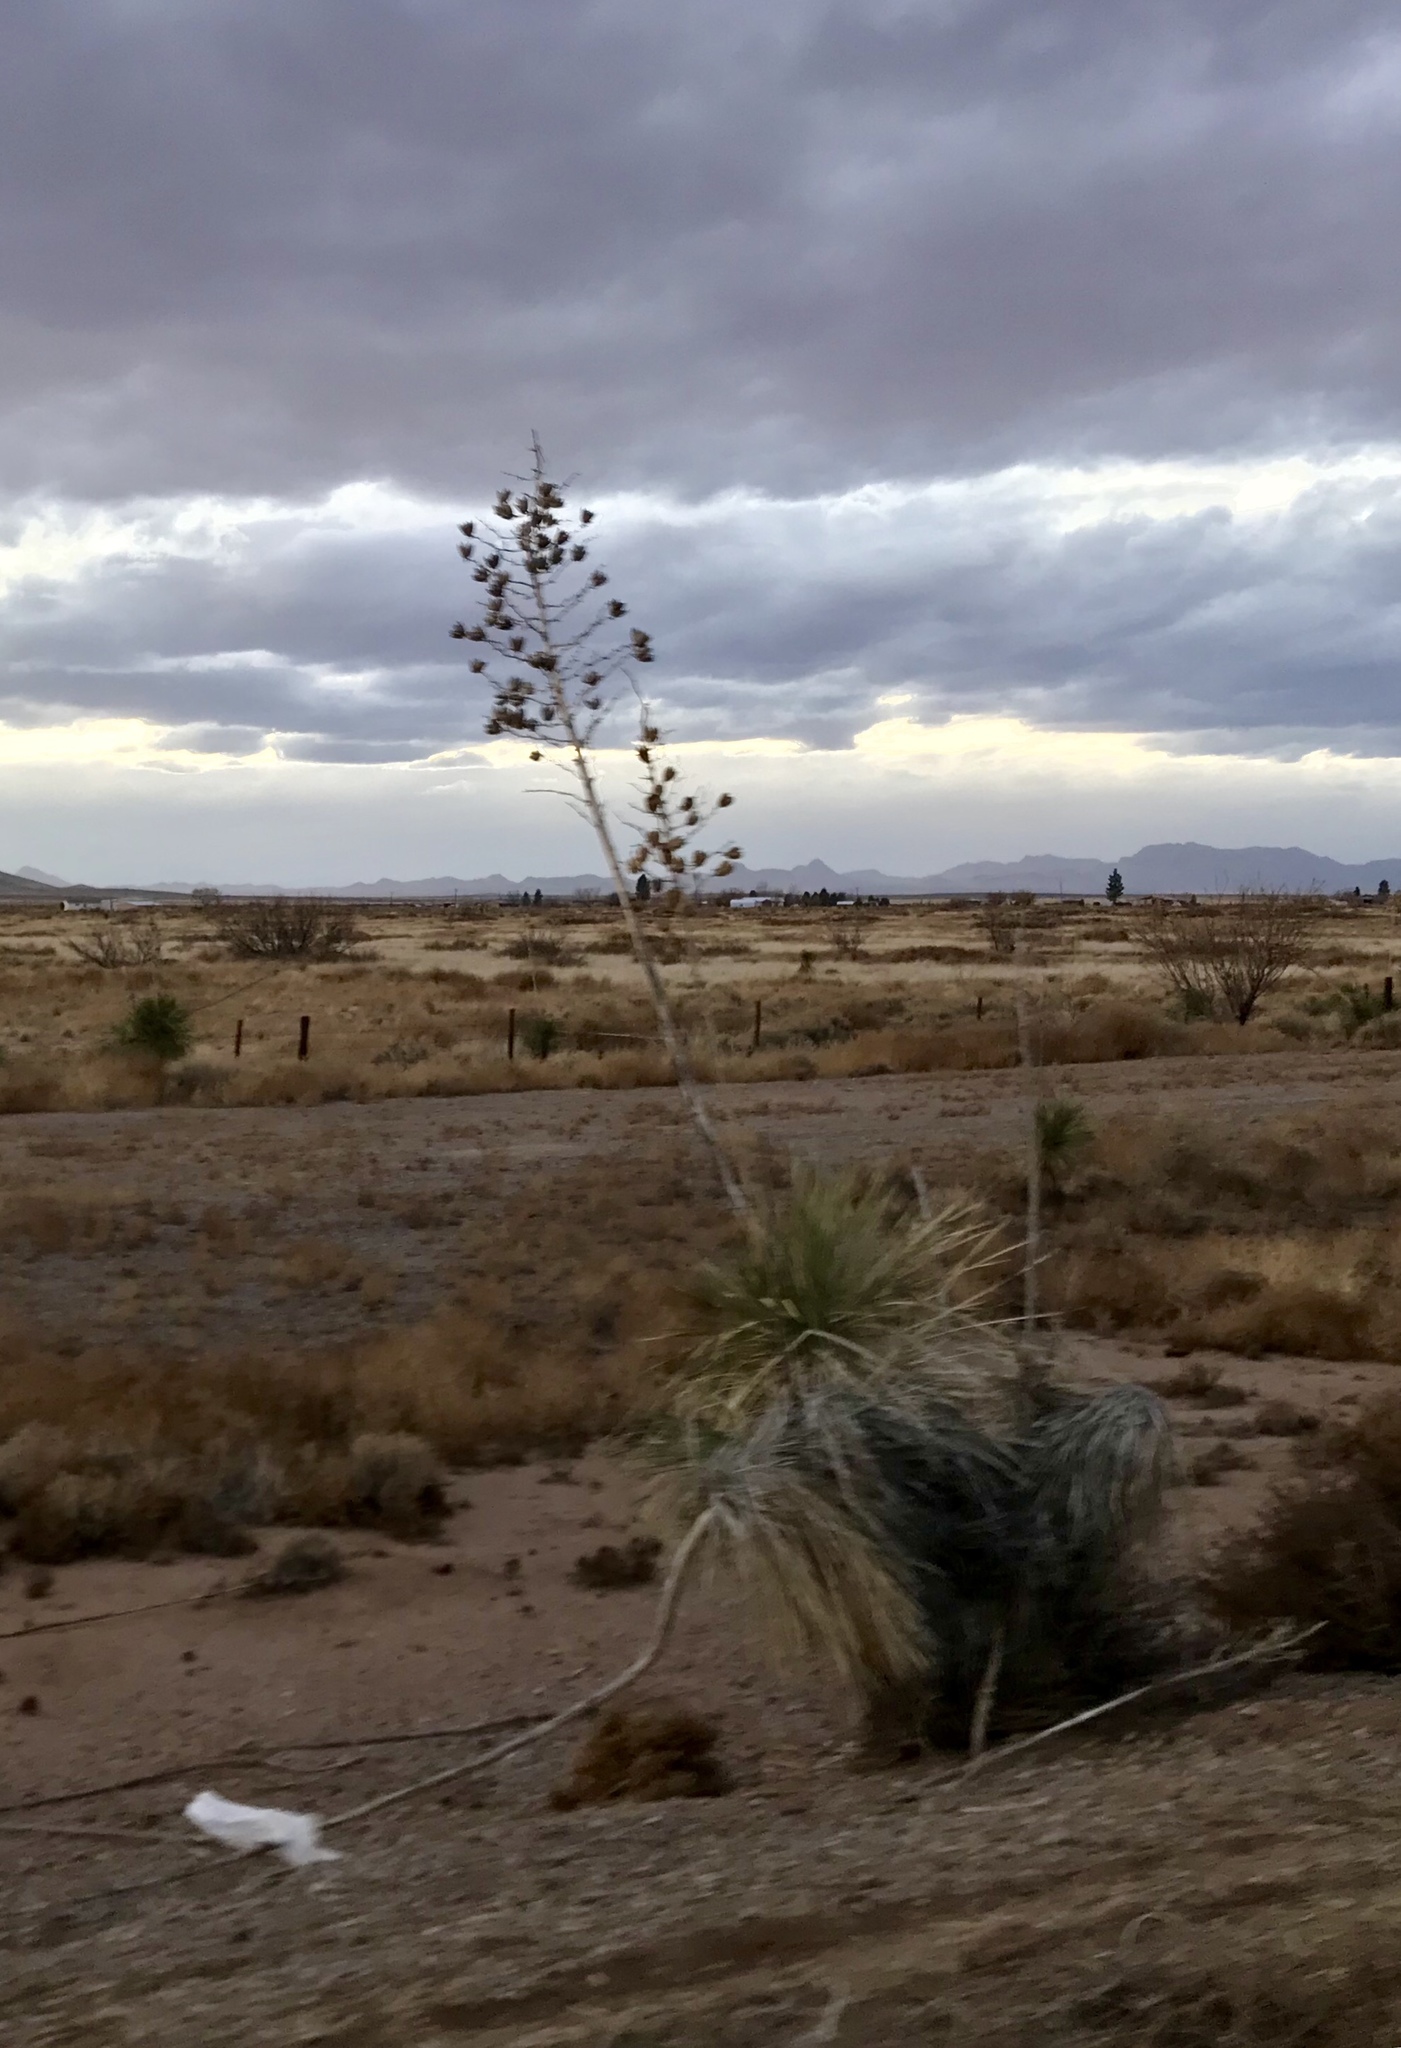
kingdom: Plantae
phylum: Tracheophyta
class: Liliopsida
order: Asparagales
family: Asparagaceae
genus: Yucca
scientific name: Yucca elata
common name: Palmella
